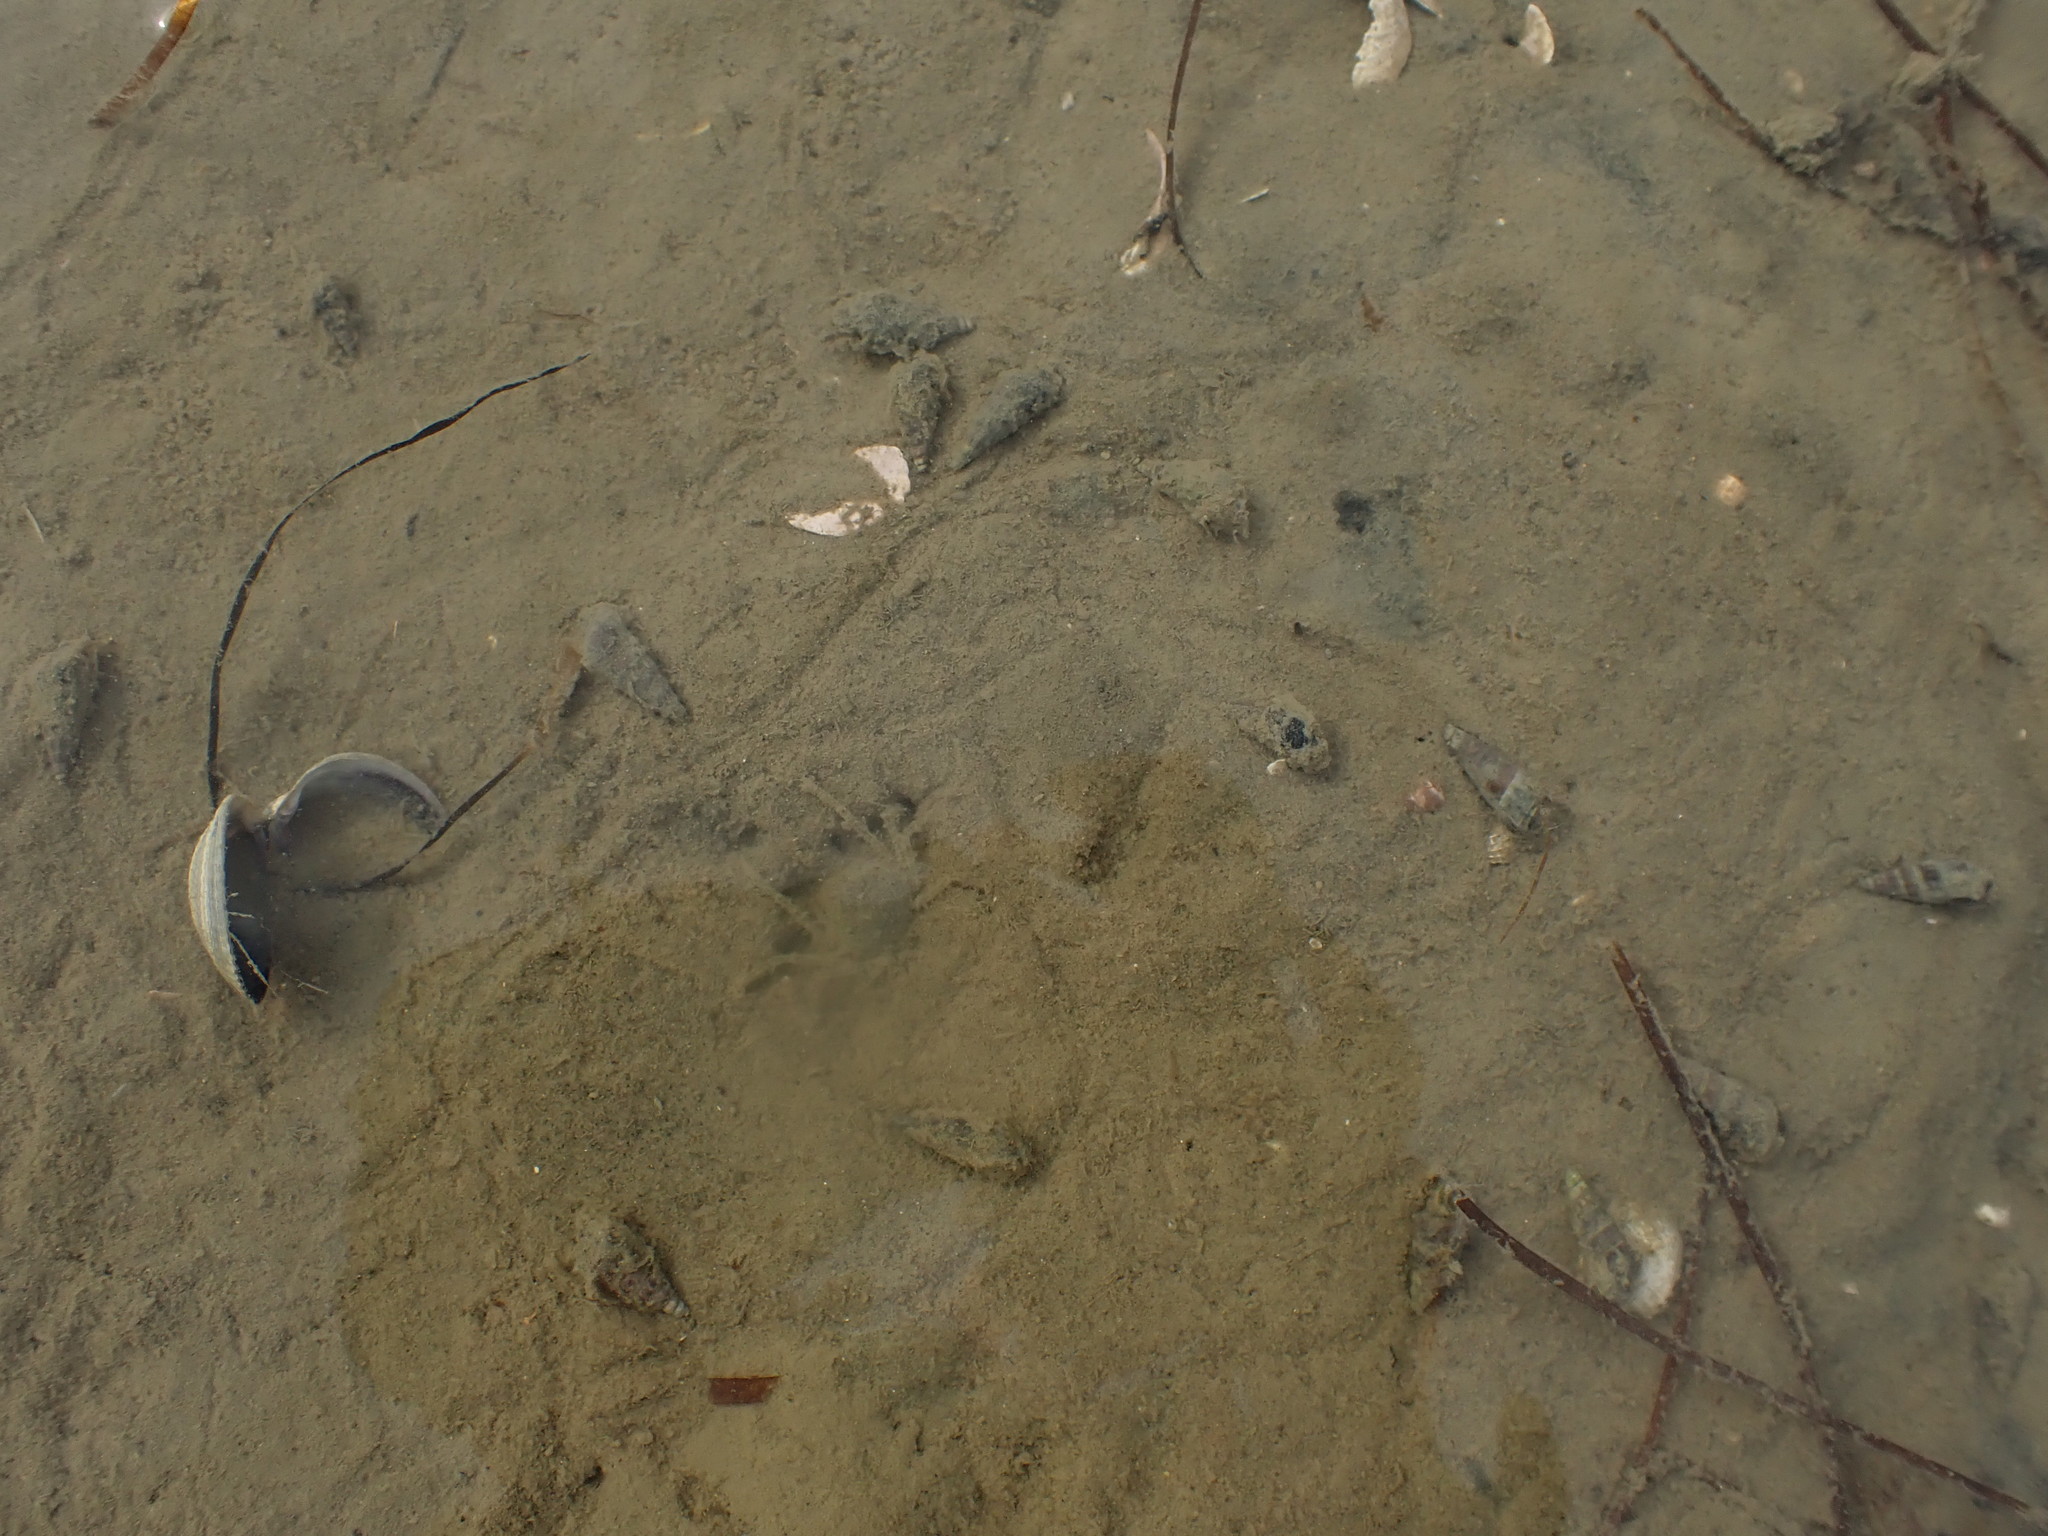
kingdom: Animalia
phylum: Mollusca
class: Gastropoda
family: Batillariidae
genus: Zeacumantus
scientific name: Zeacumantus lutulentus
